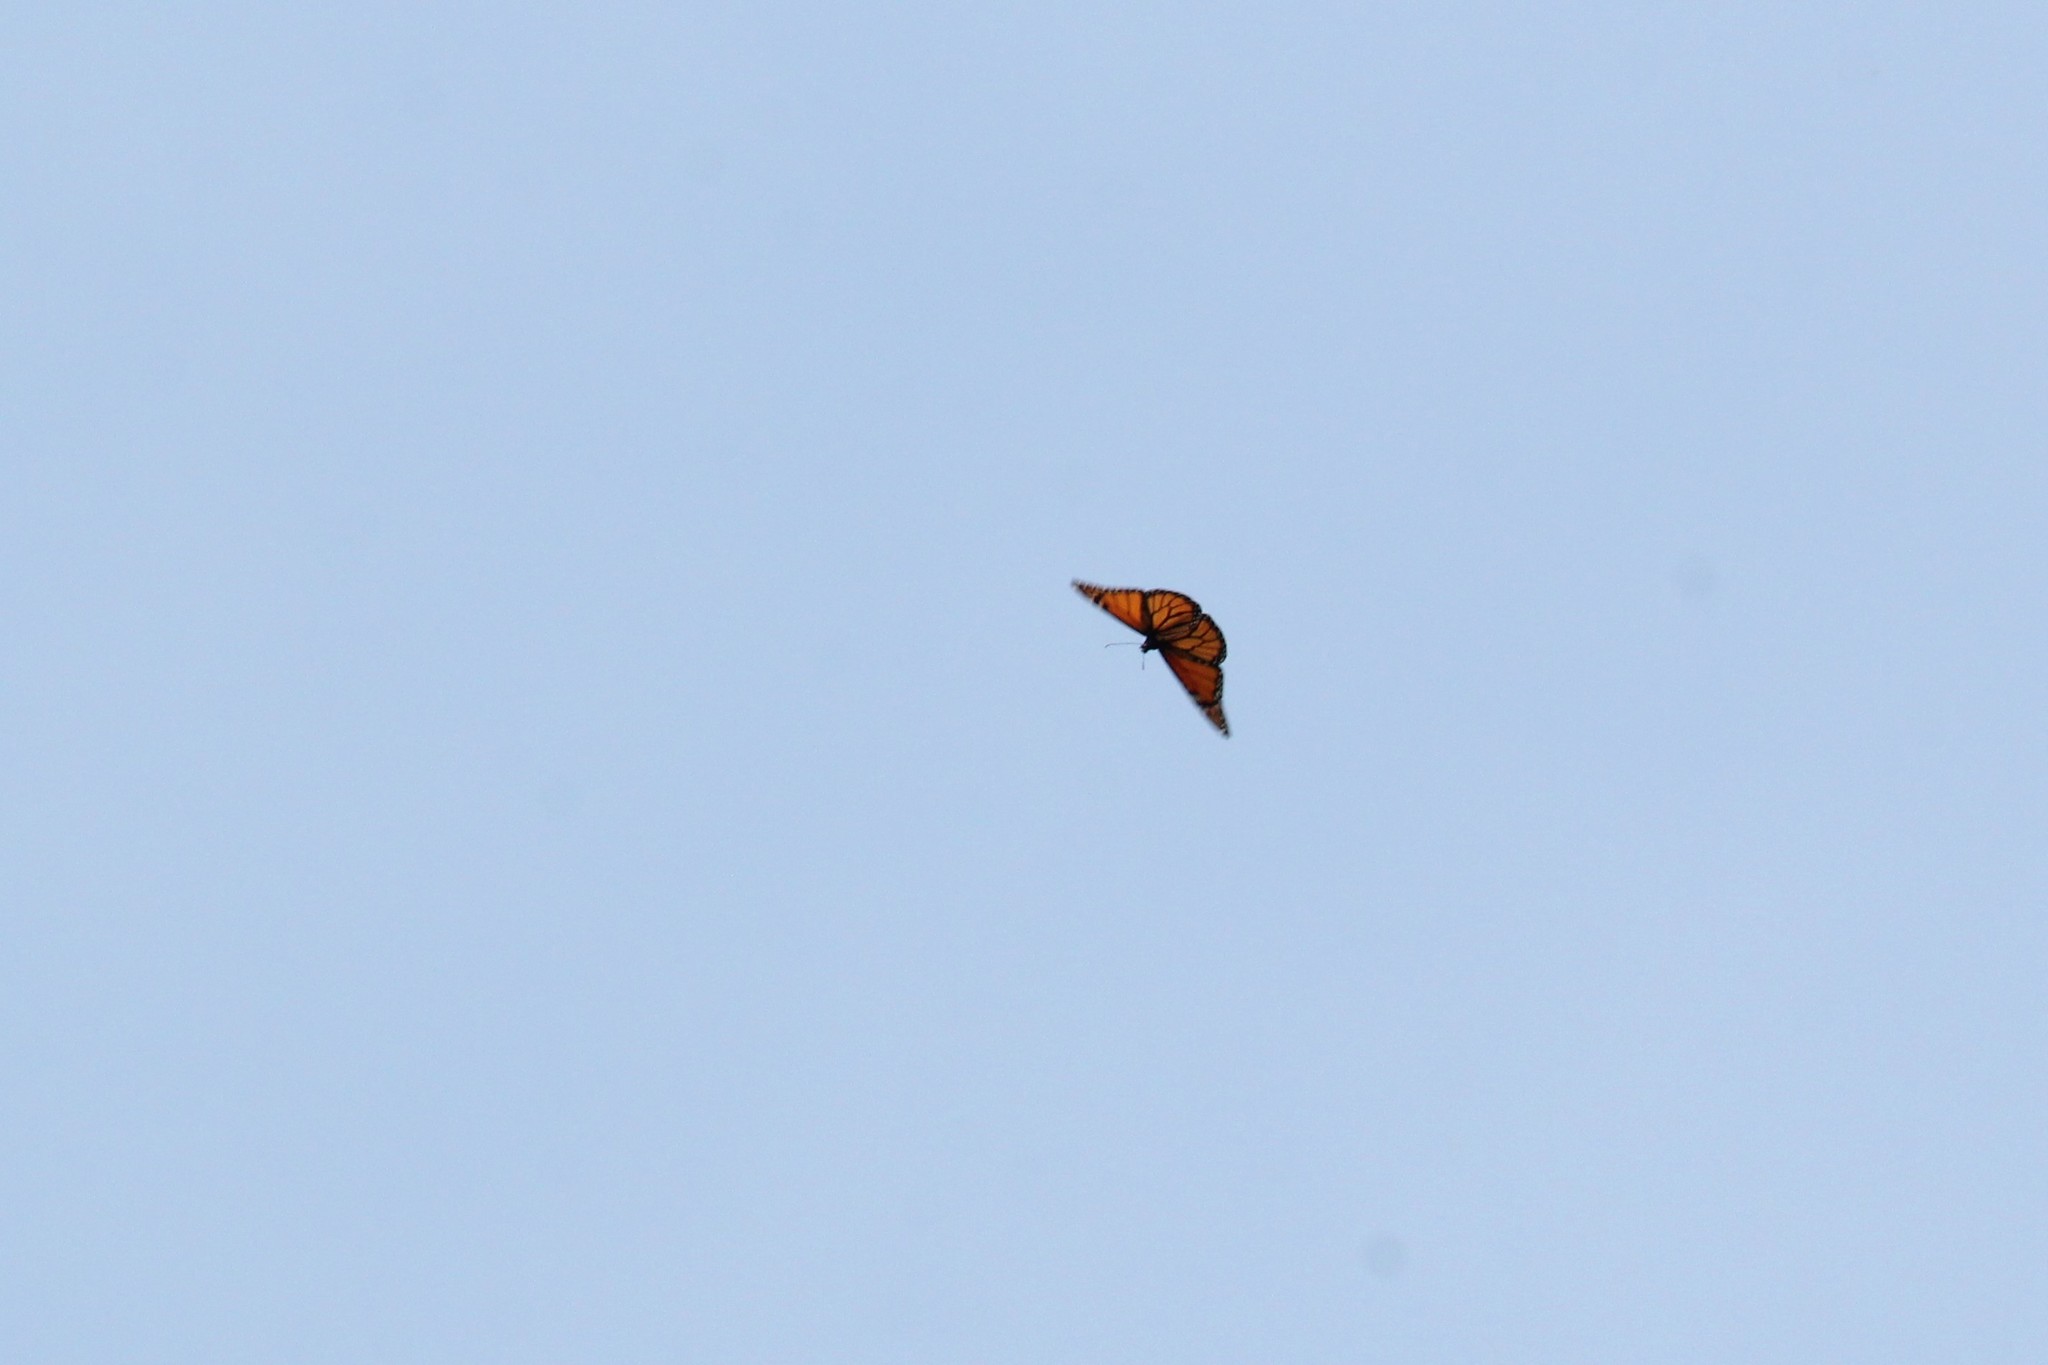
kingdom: Animalia
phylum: Arthropoda
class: Insecta
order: Lepidoptera
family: Nymphalidae
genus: Danaus
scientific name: Danaus plexippus
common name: Monarch
